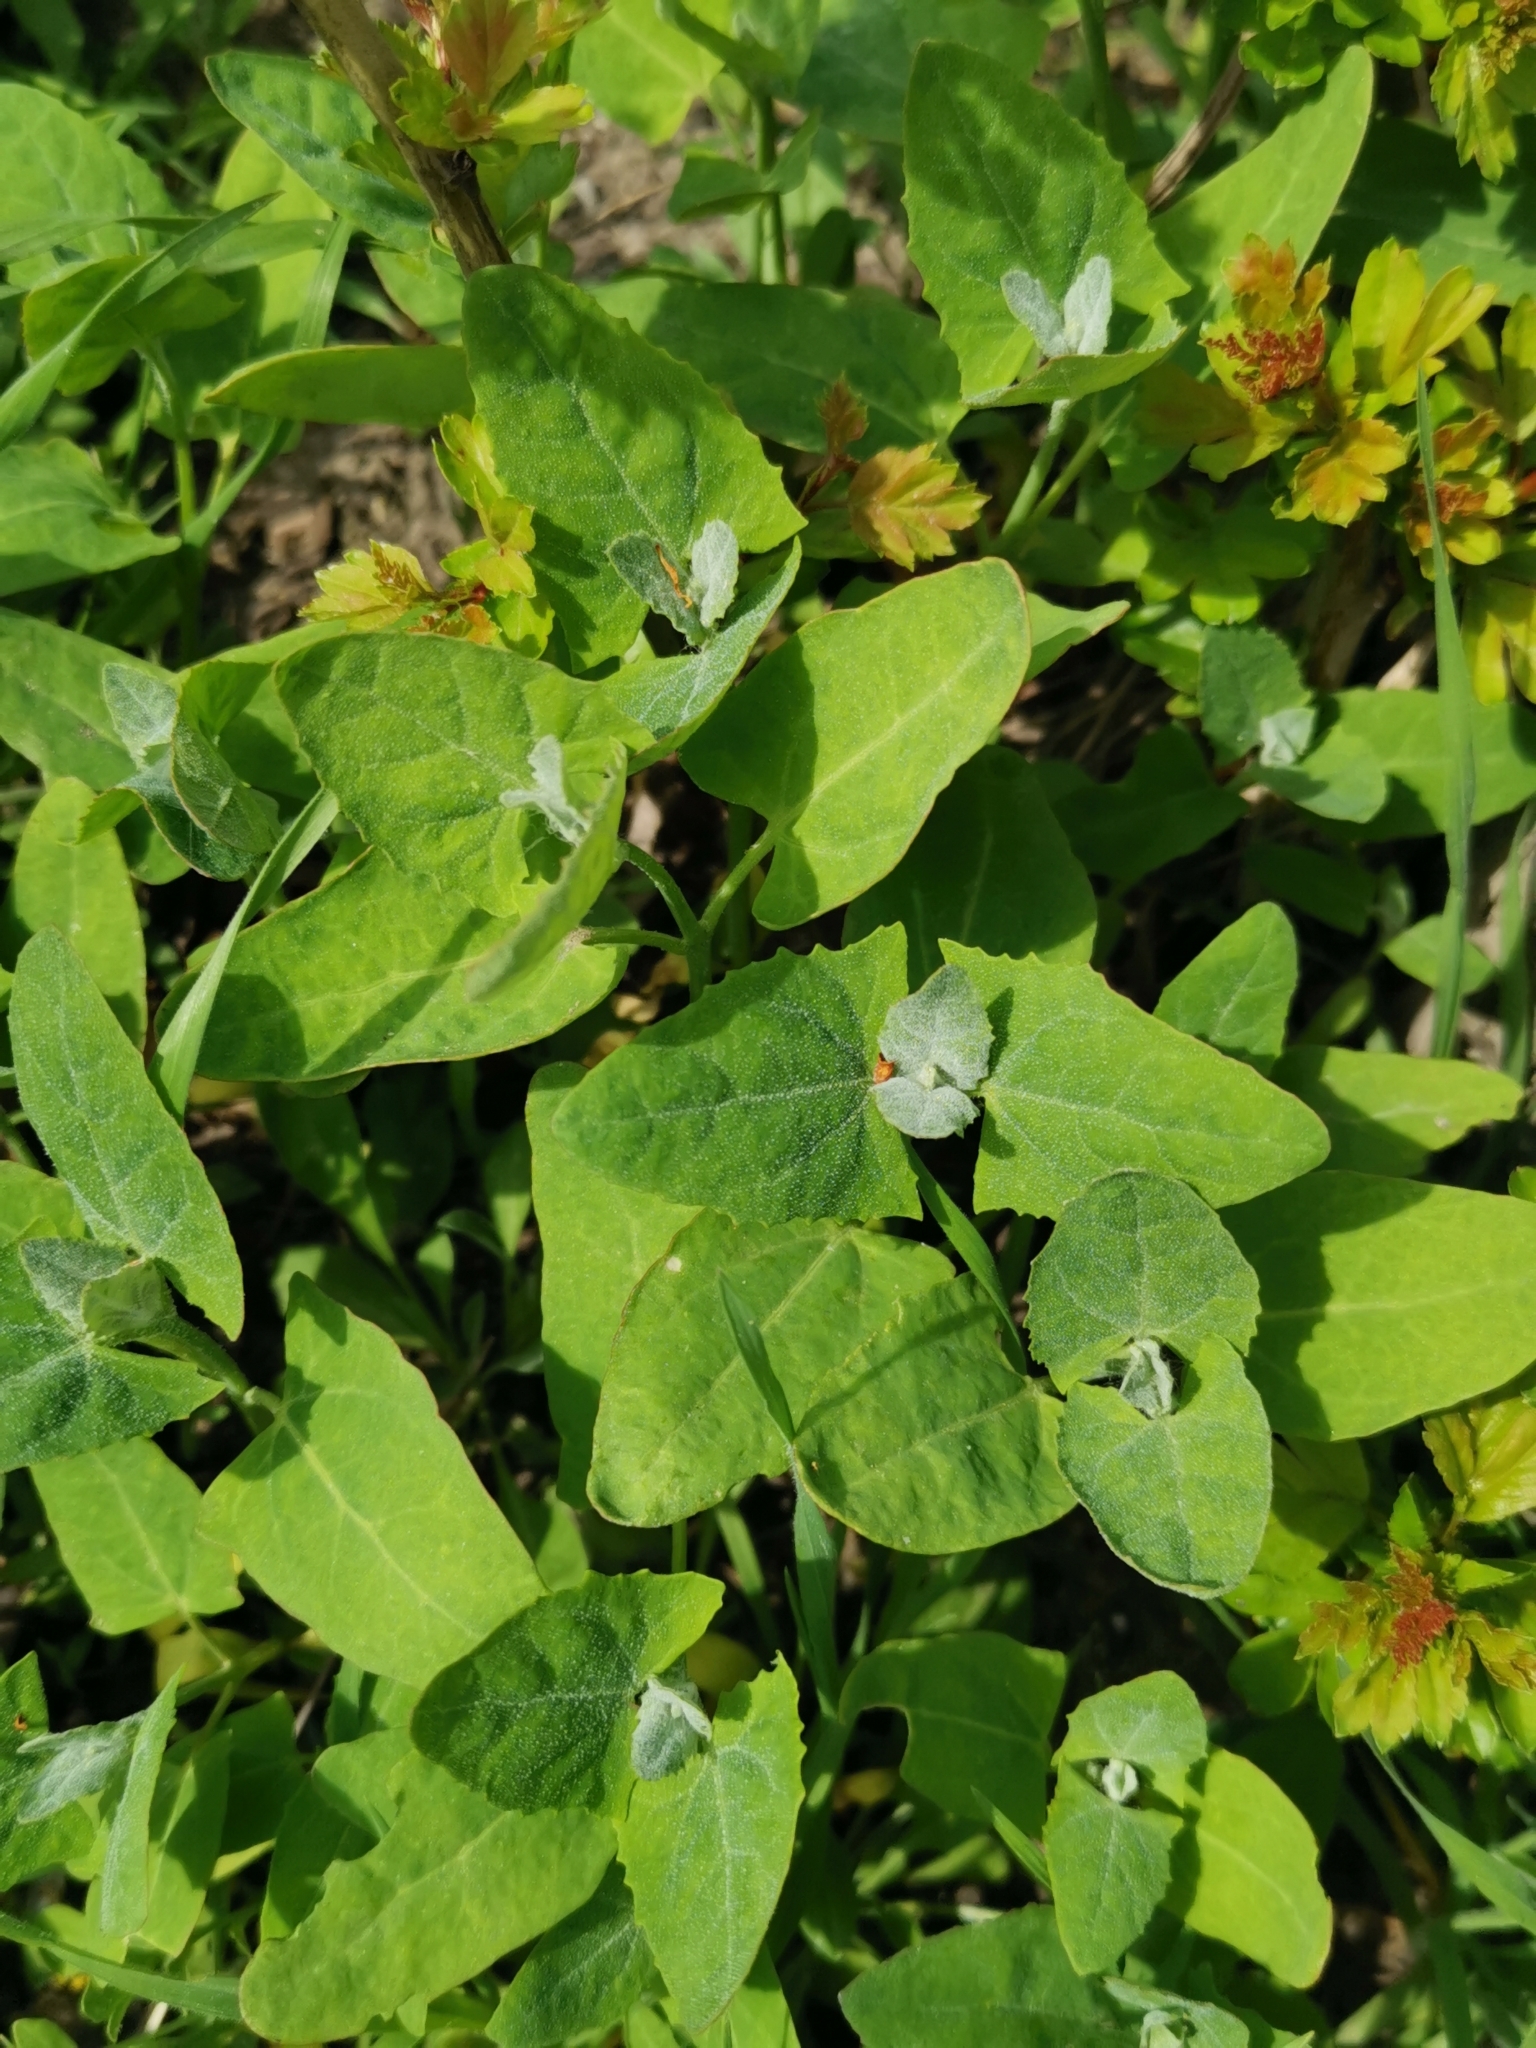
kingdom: Plantae
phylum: Tracheophyta
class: Magnoliopsida
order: Caryophyllales
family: Amaranthaceae
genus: Chenopodium
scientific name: Chenopodium album
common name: Fat-hen
